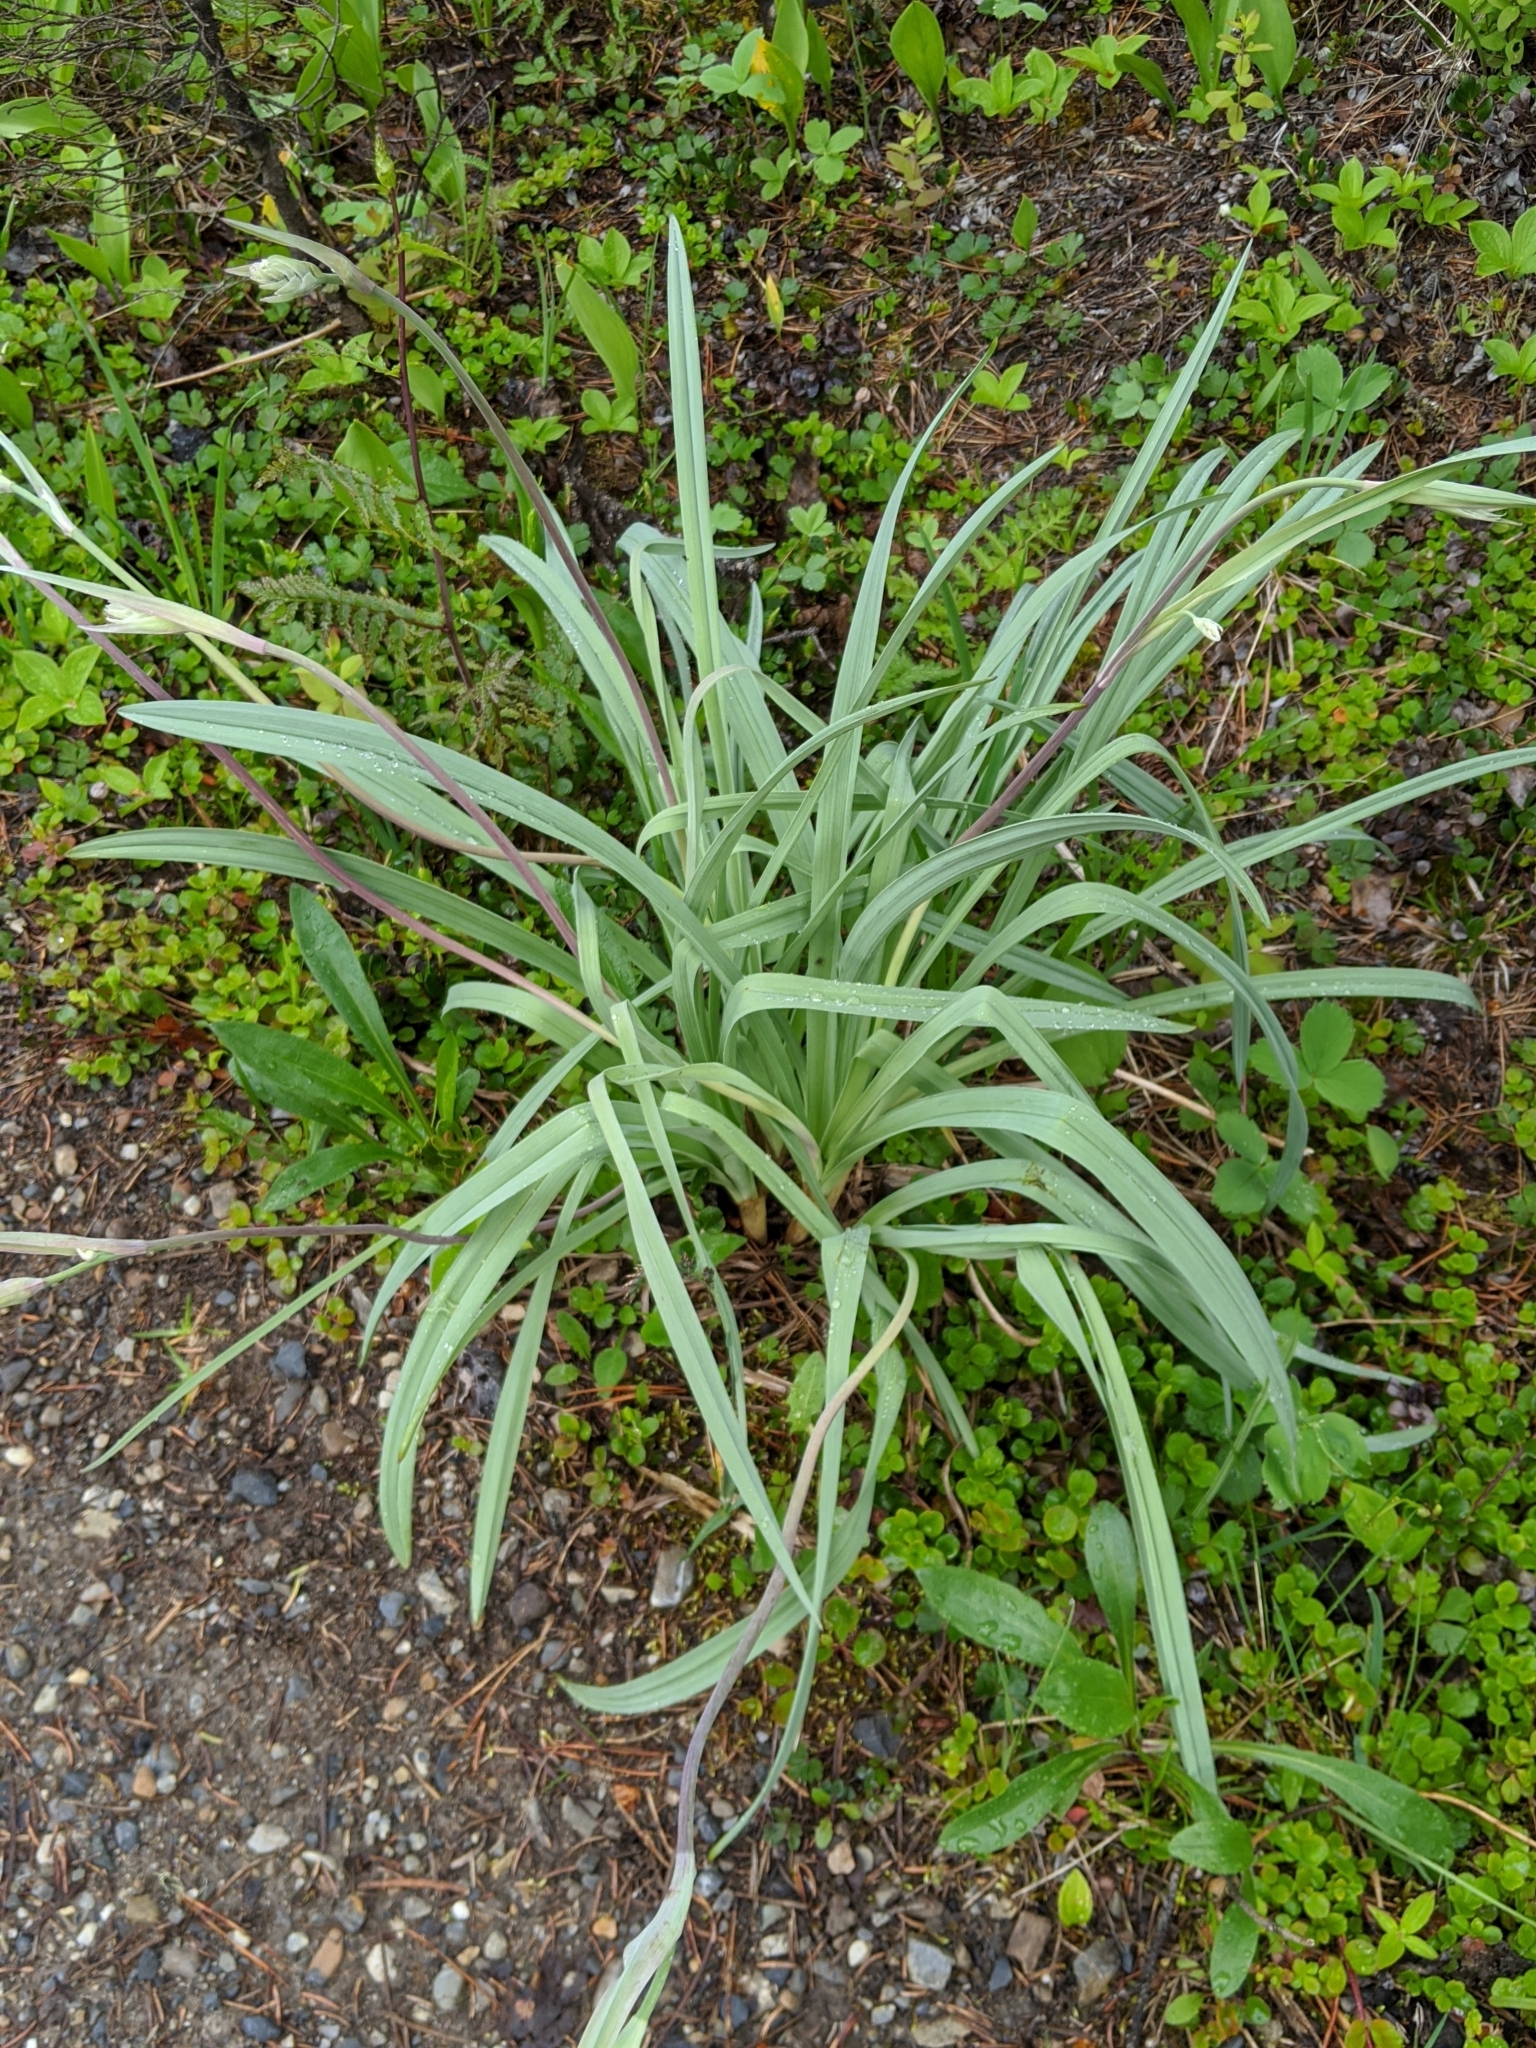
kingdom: Plantae
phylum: Tracheophyta
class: Liliopsida
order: Liliales
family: Melanthiaceae
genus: Anticlea
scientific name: Anticlea elegans
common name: Mountain death camas
